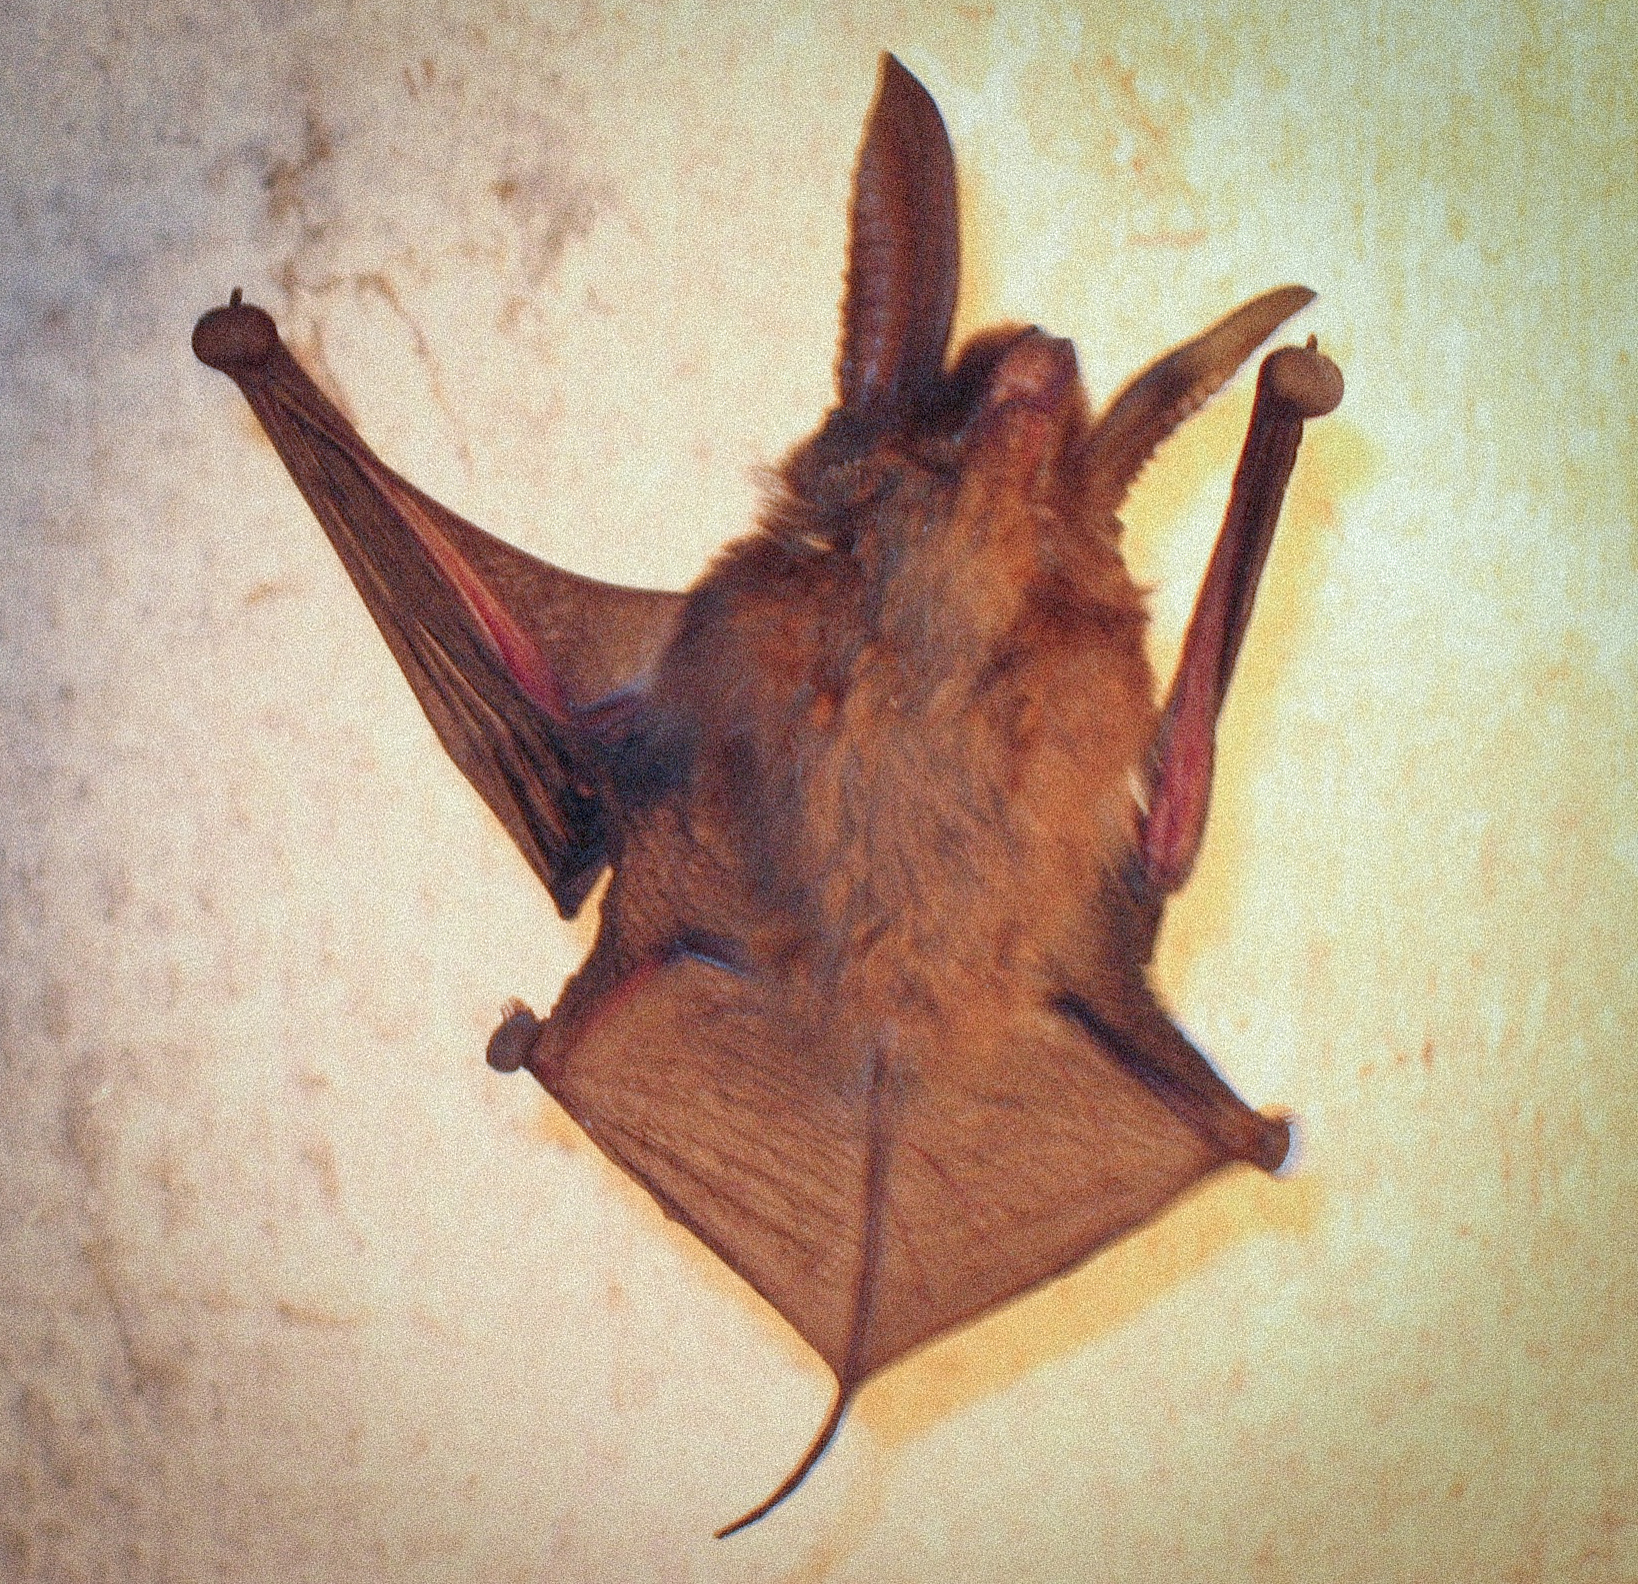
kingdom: Animalia
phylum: Chordata
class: Mammalia
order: Chiroptera
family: Myzopodidae
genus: Myzopoda
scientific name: Myzopoda aurita
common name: Eastern sucker-footed bat
